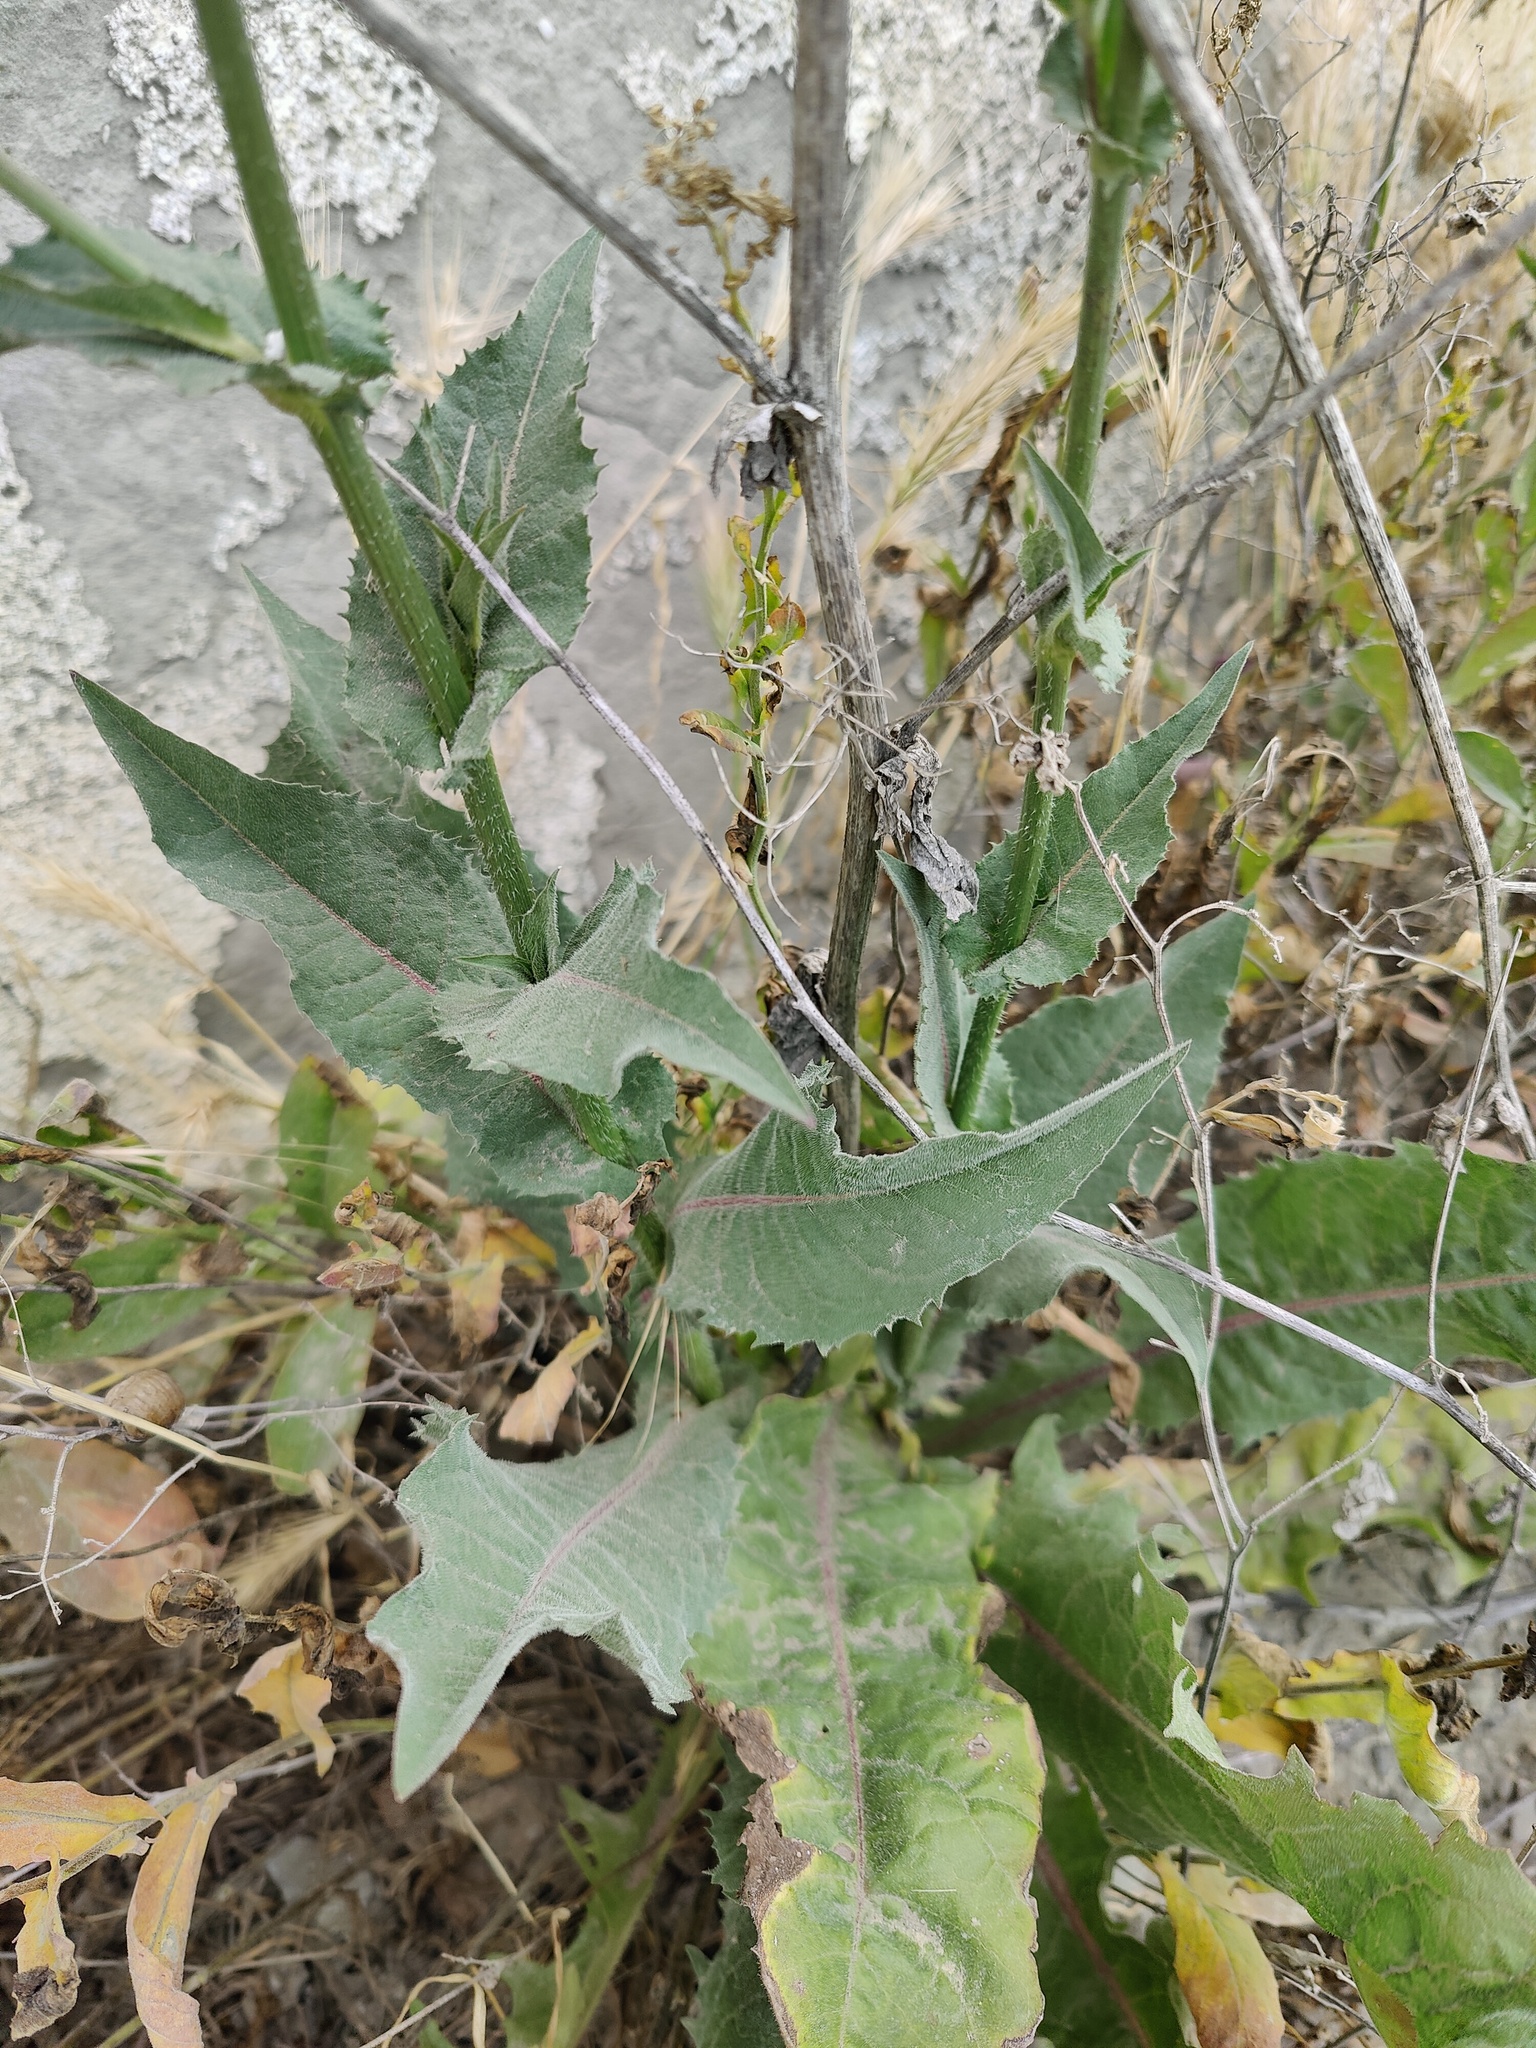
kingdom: Plantae
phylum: Tracheophyta
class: Magnoliopsida
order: Asterales
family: Asteraceae
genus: Cichorium
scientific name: Cichorium intybus
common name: Chicory
